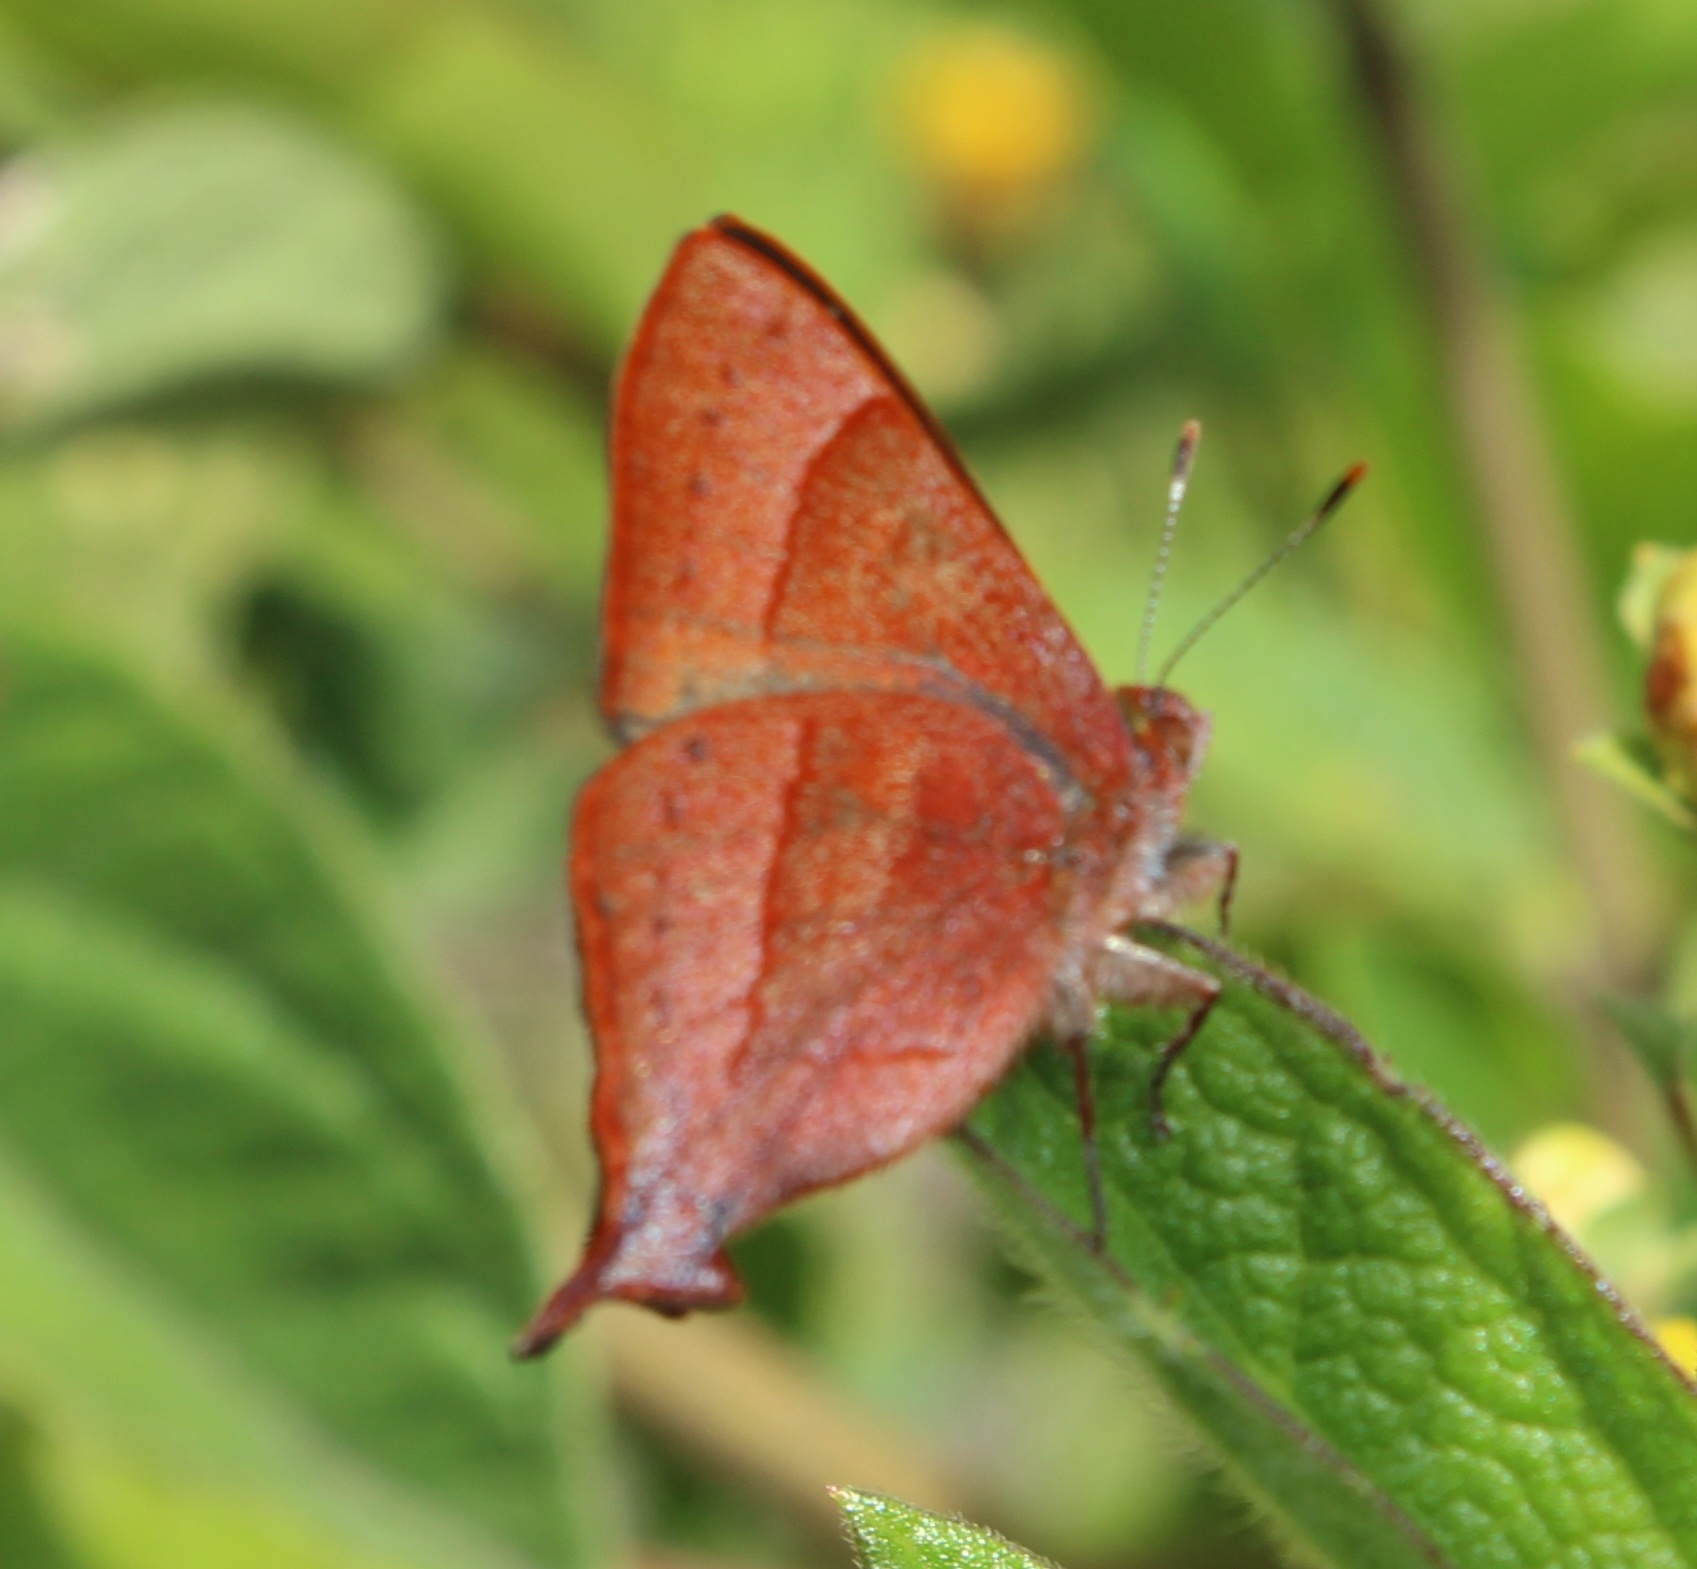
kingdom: Animalia
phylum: Arthropoda
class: Insecta
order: Lepidoptera
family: Lycaenidae
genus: Penaincisalia
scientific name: Penaincisalia loxurina
